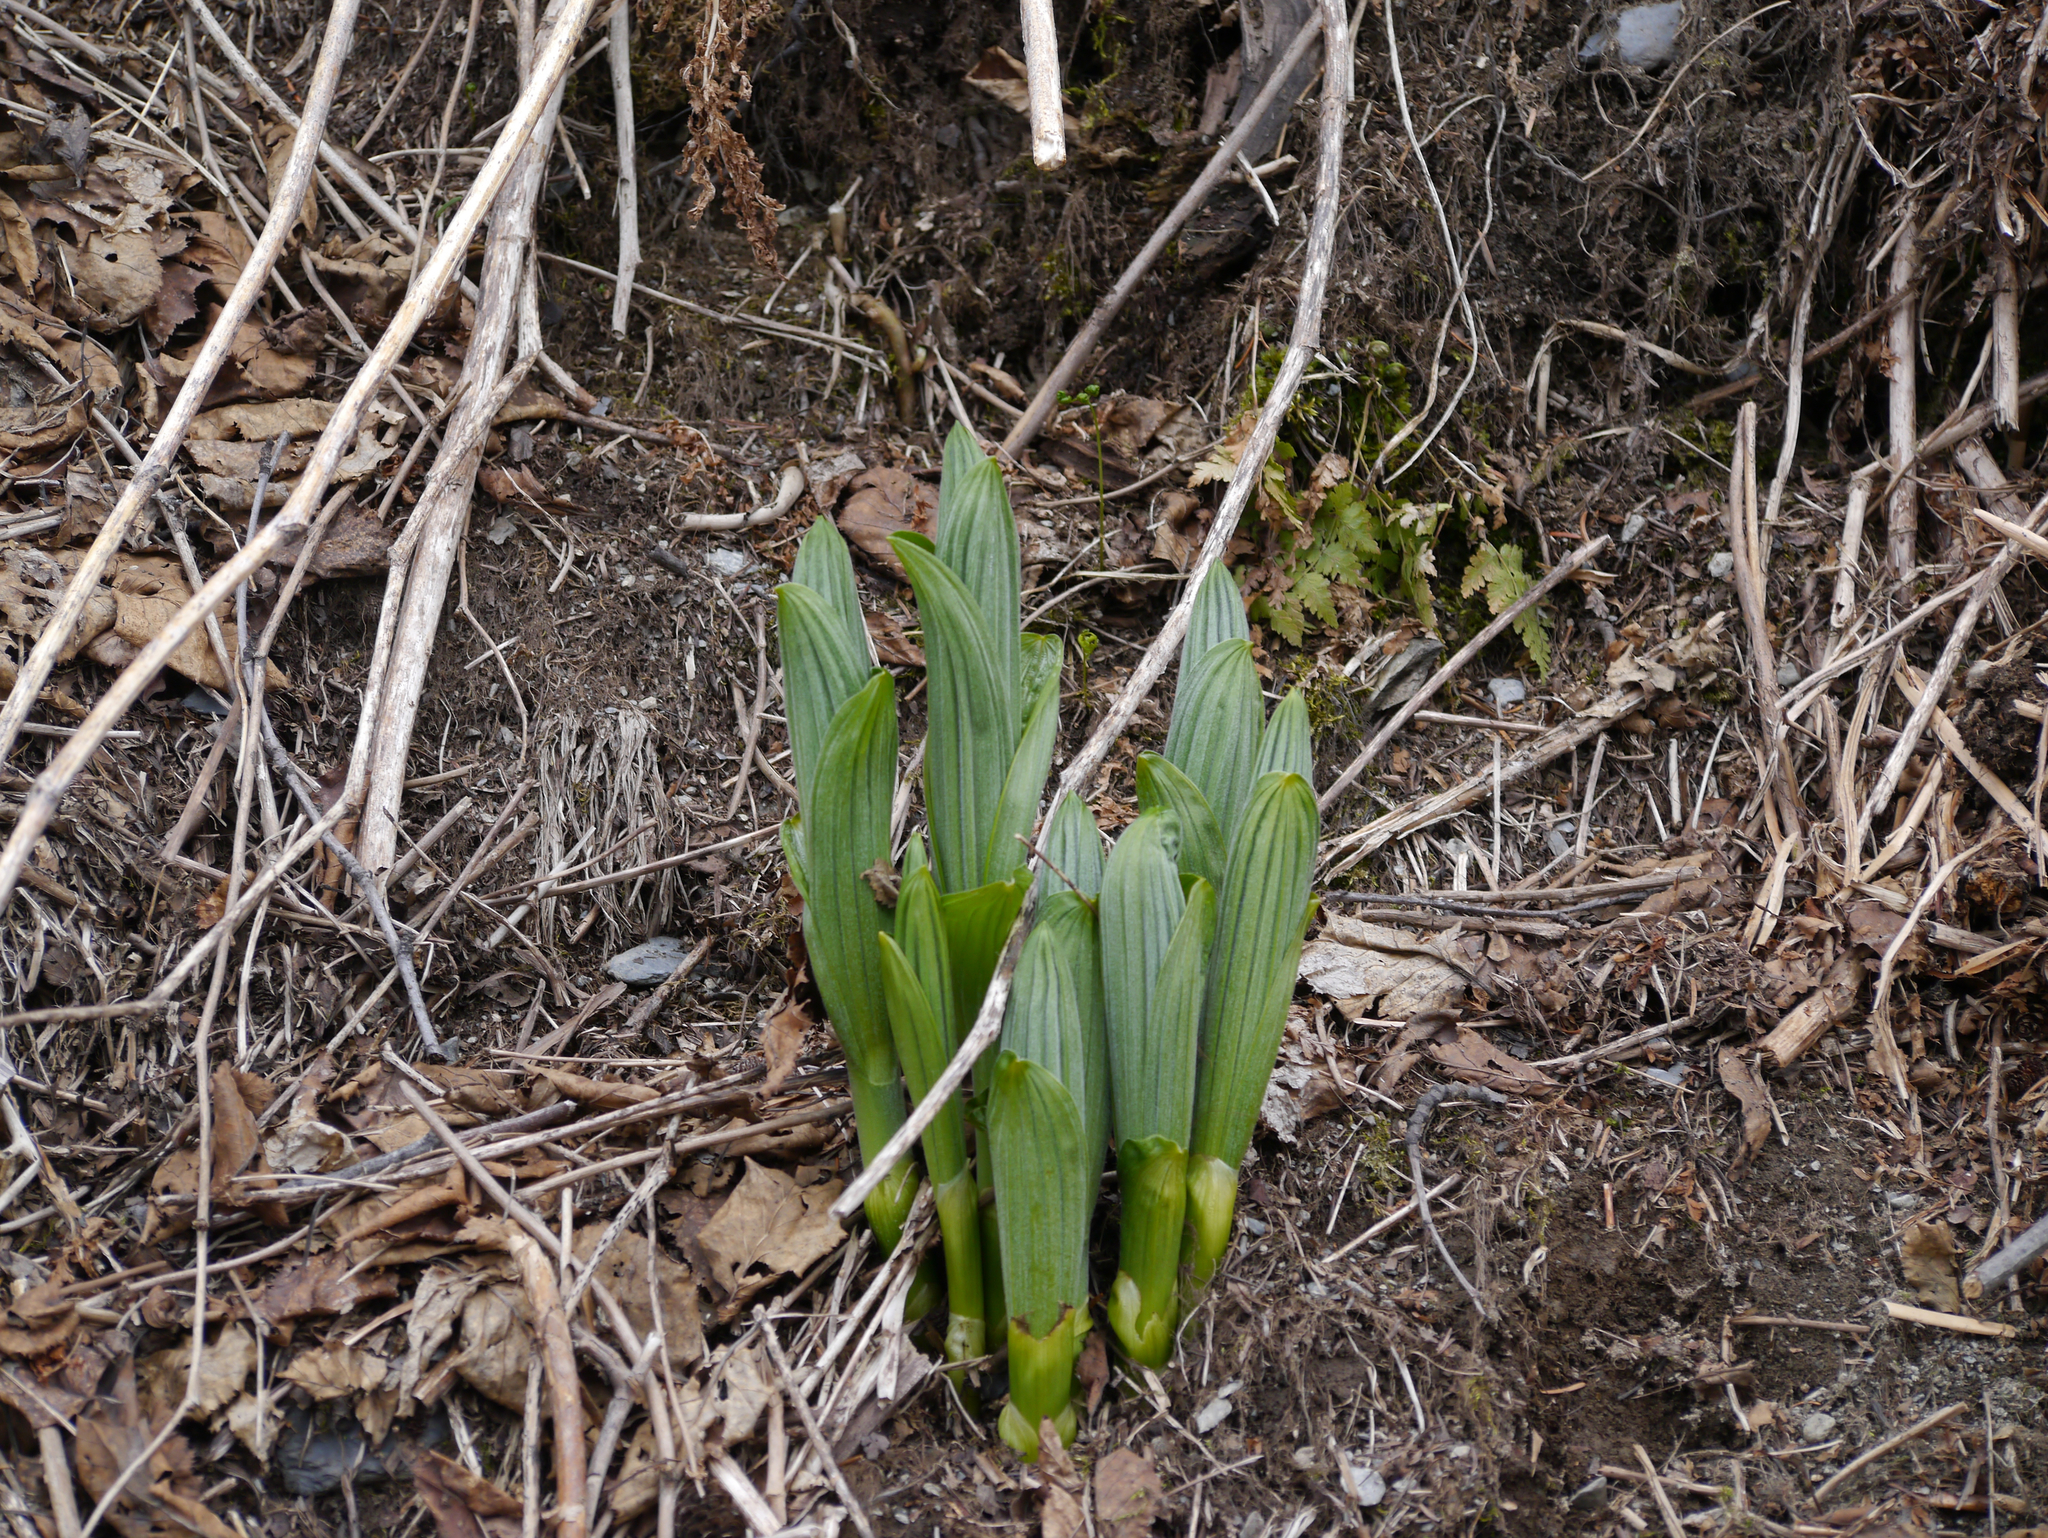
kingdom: Plantae
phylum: Tracheophyta
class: Liliopsida
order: Liliales
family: Melanthiaceae
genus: Veratrum
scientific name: Veratrum viride
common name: American false hellebore
